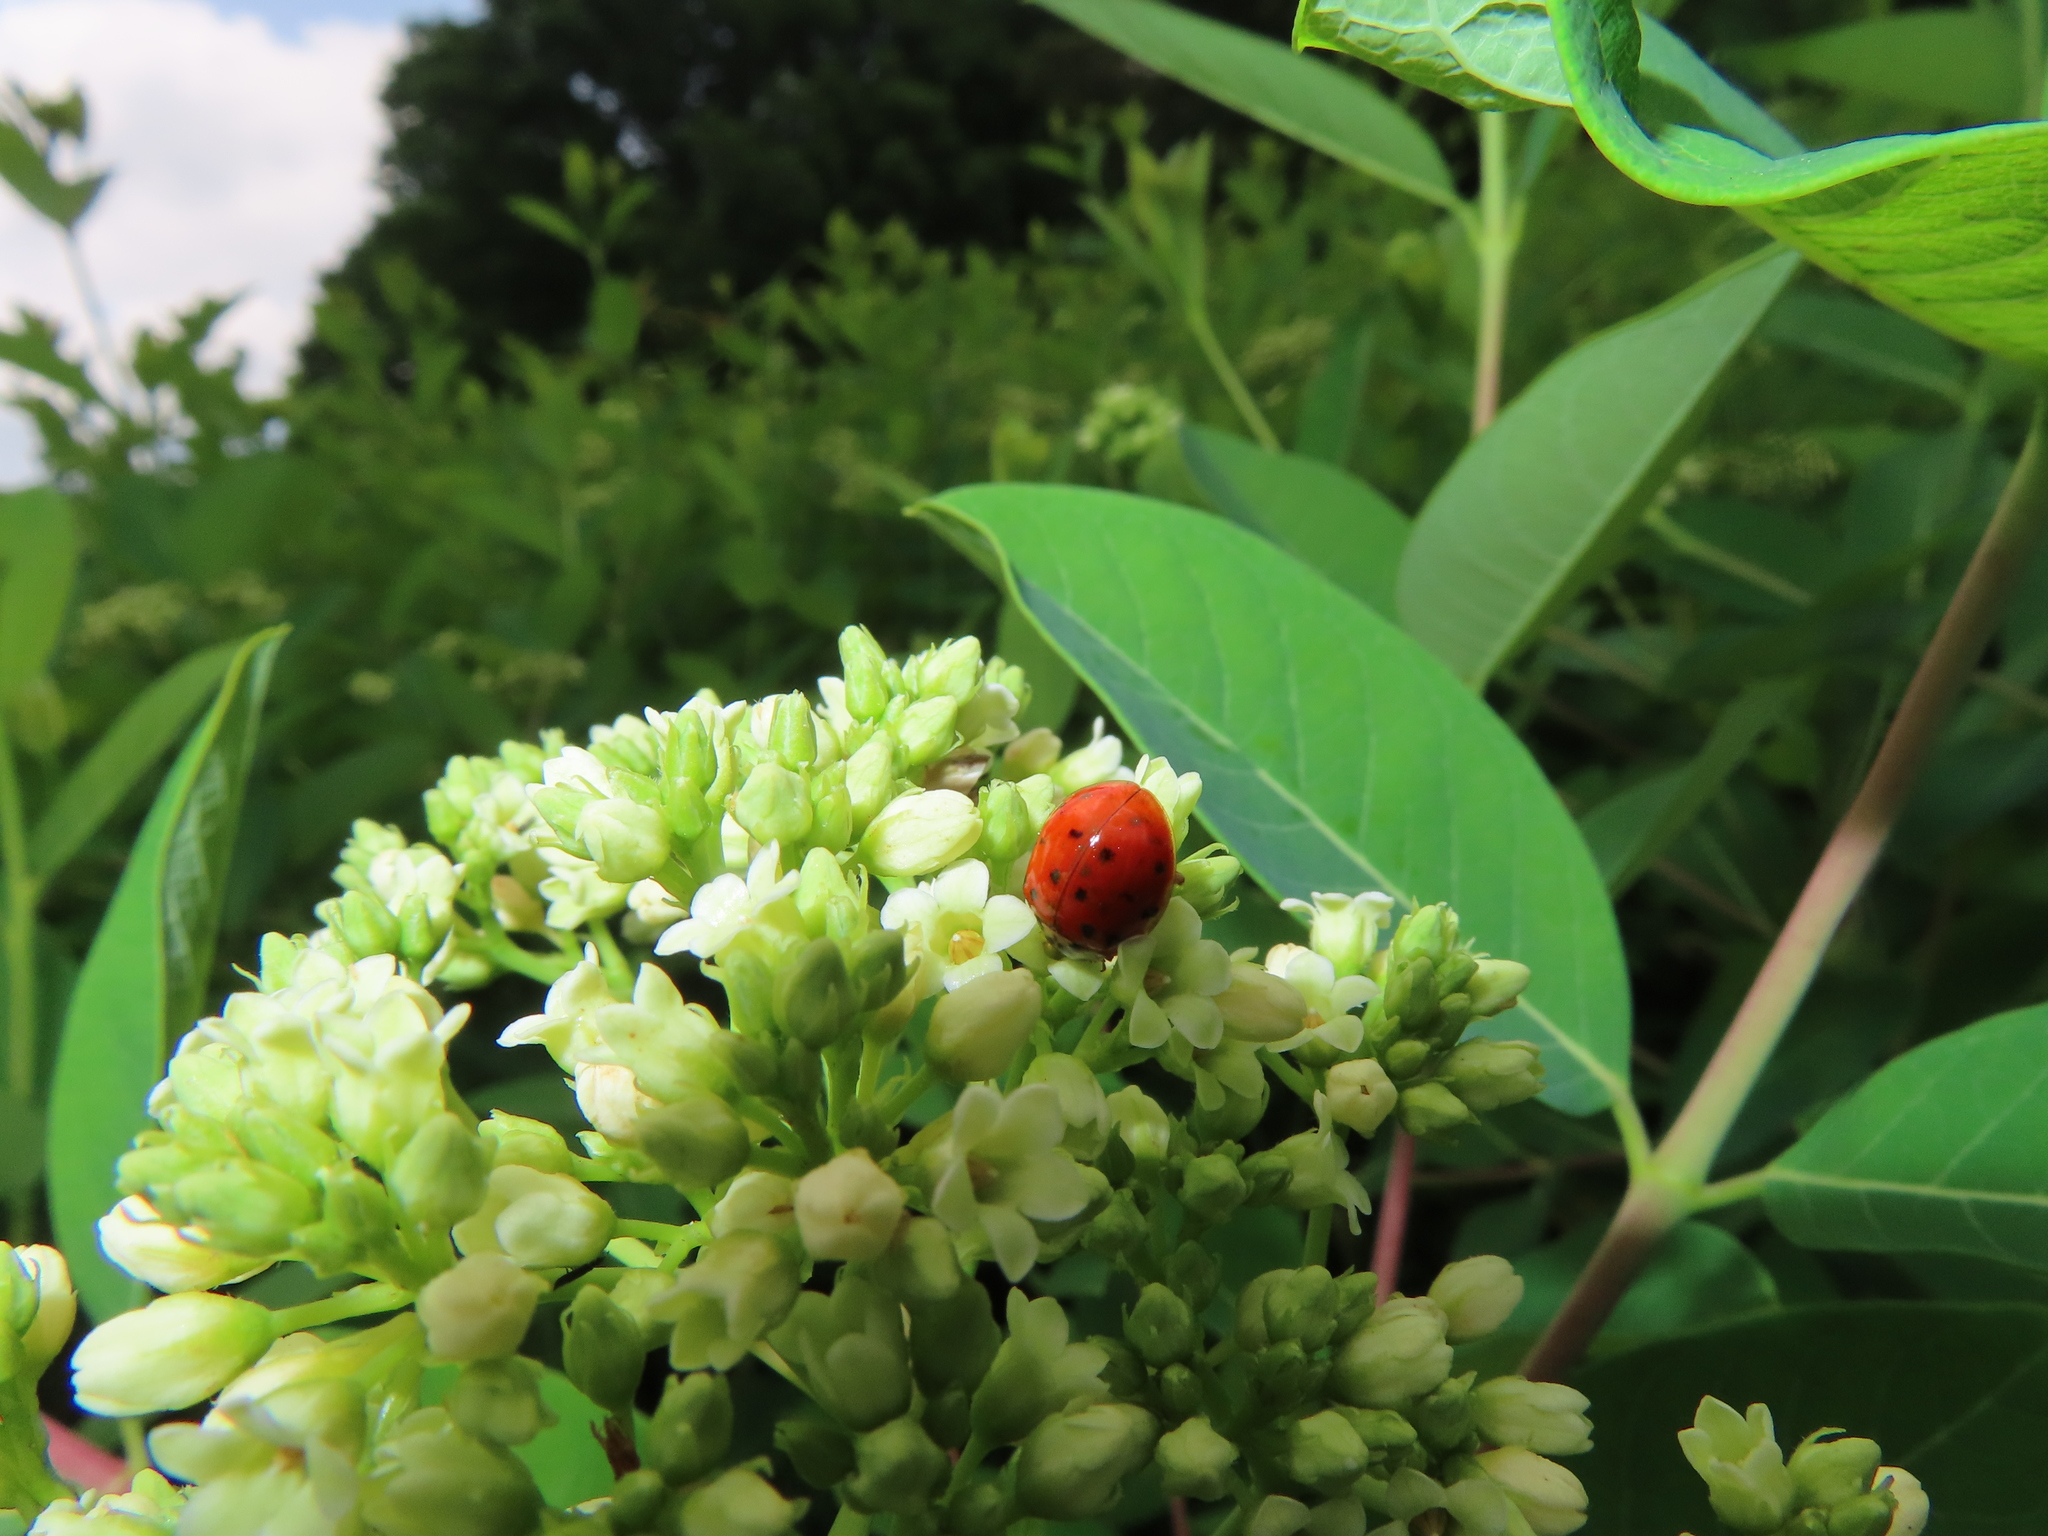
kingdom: Animalia
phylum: Arthropoda
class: Insecta
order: Coleoptera
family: Coccinellidae
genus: Harmonia
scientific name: Harmonia axyridis
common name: Harlequin ladybird
